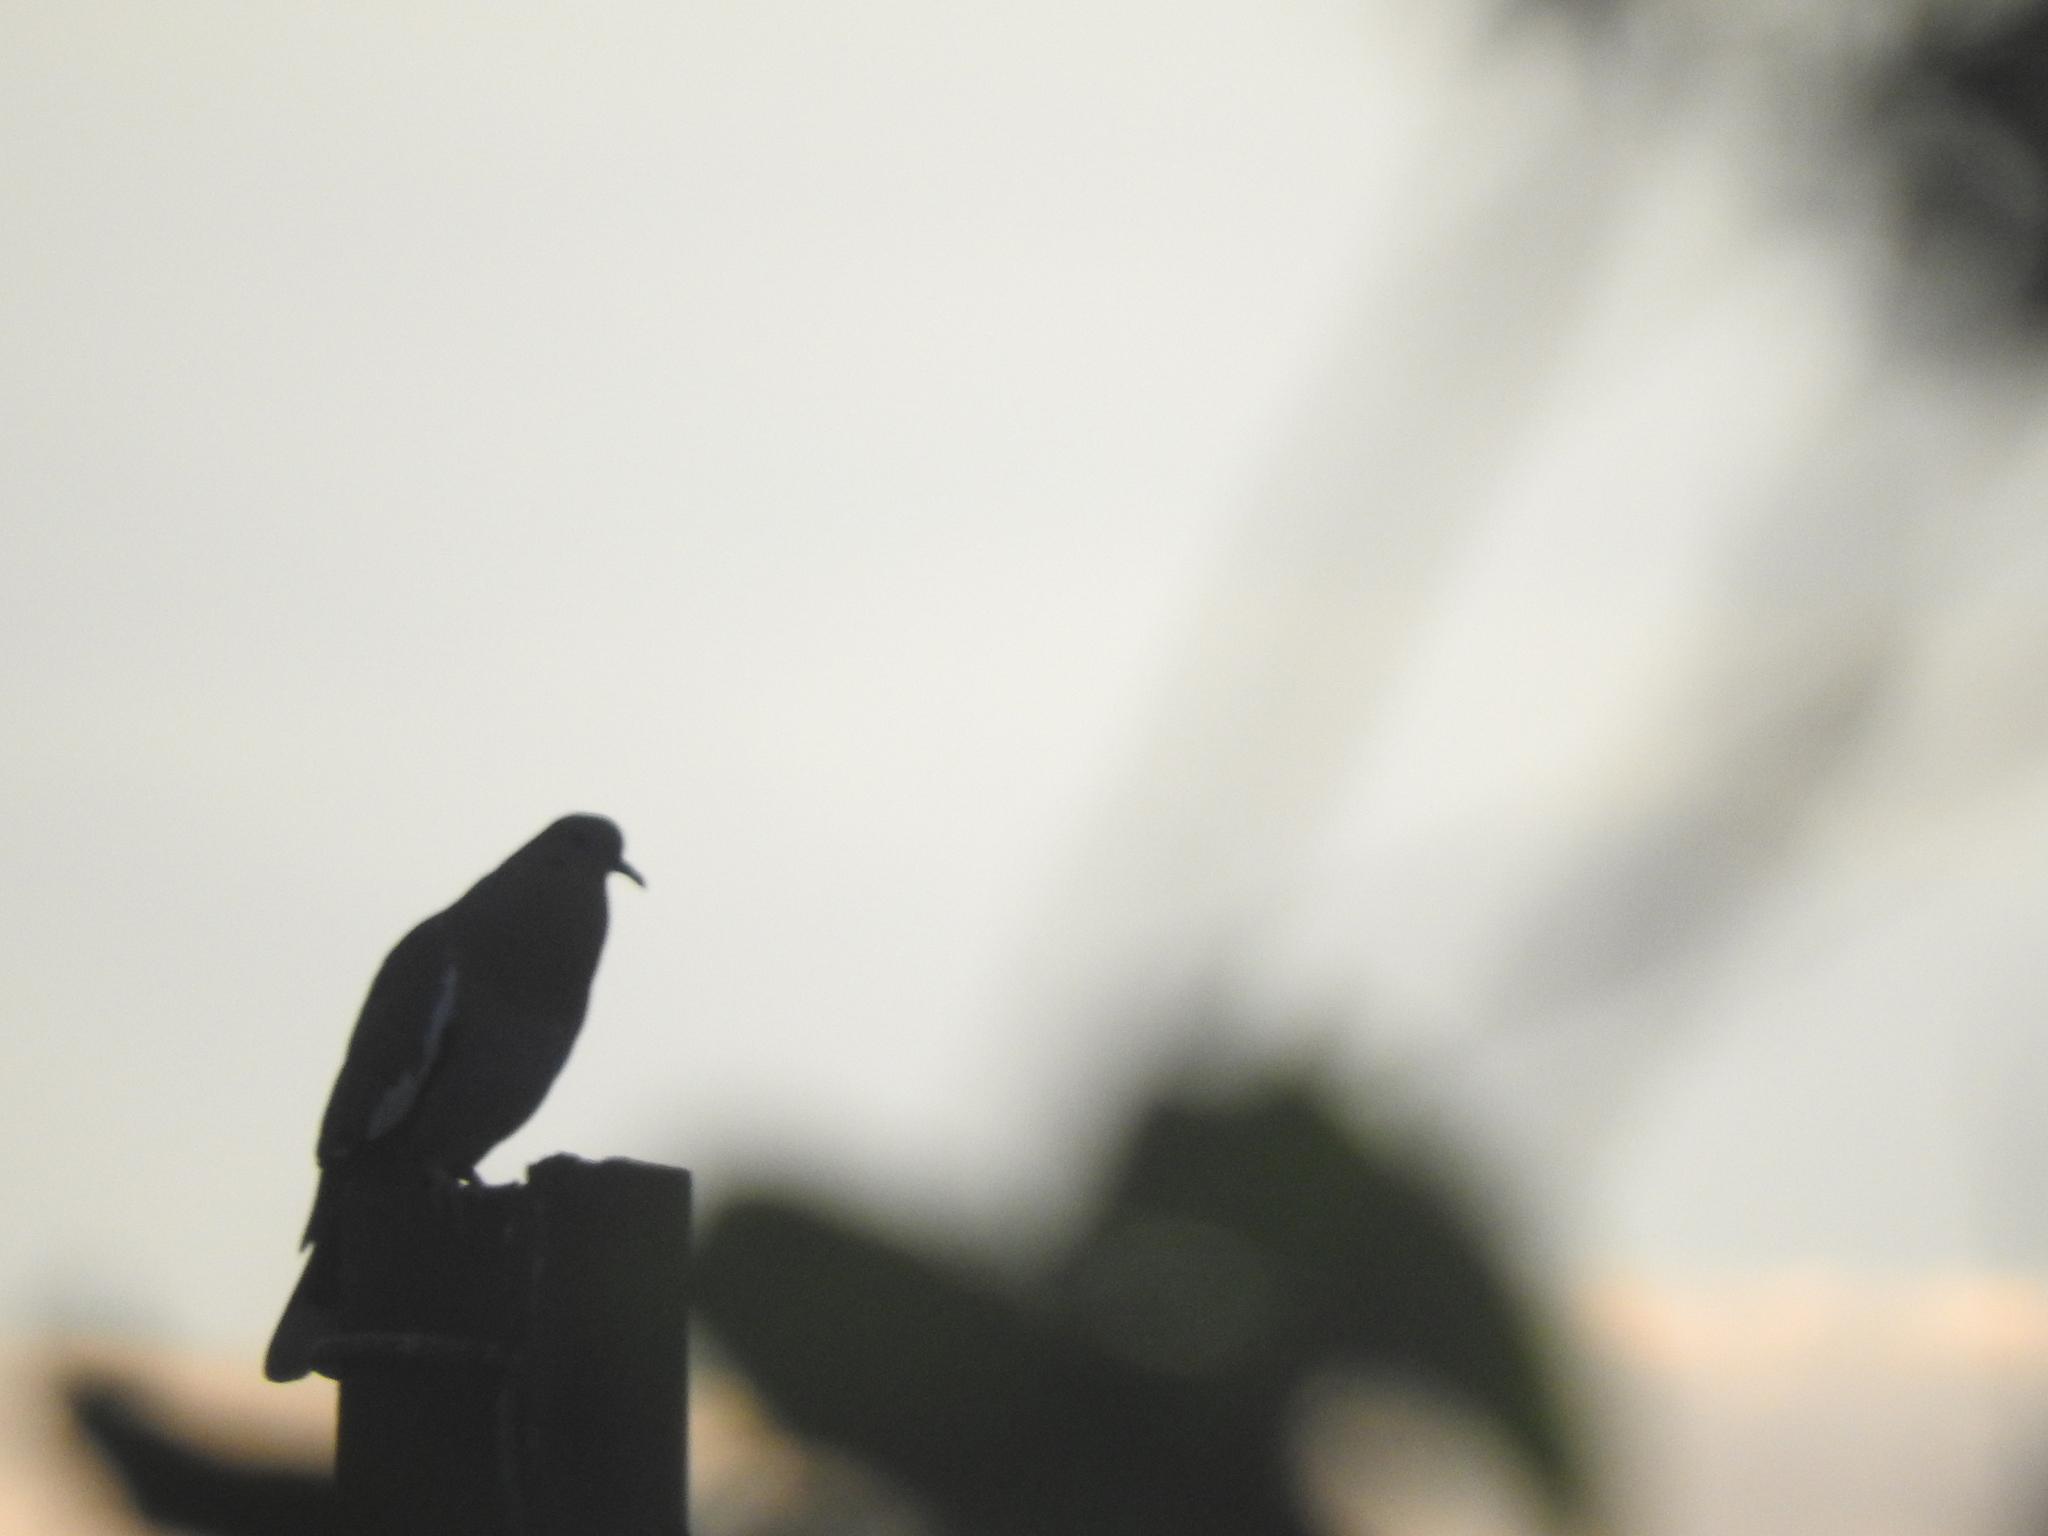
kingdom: Animalia
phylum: Chordata
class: Aves
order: Columbiformes
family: Columbidae
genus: Zenaida
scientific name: Zenaida asiatica
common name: White-winged dove
